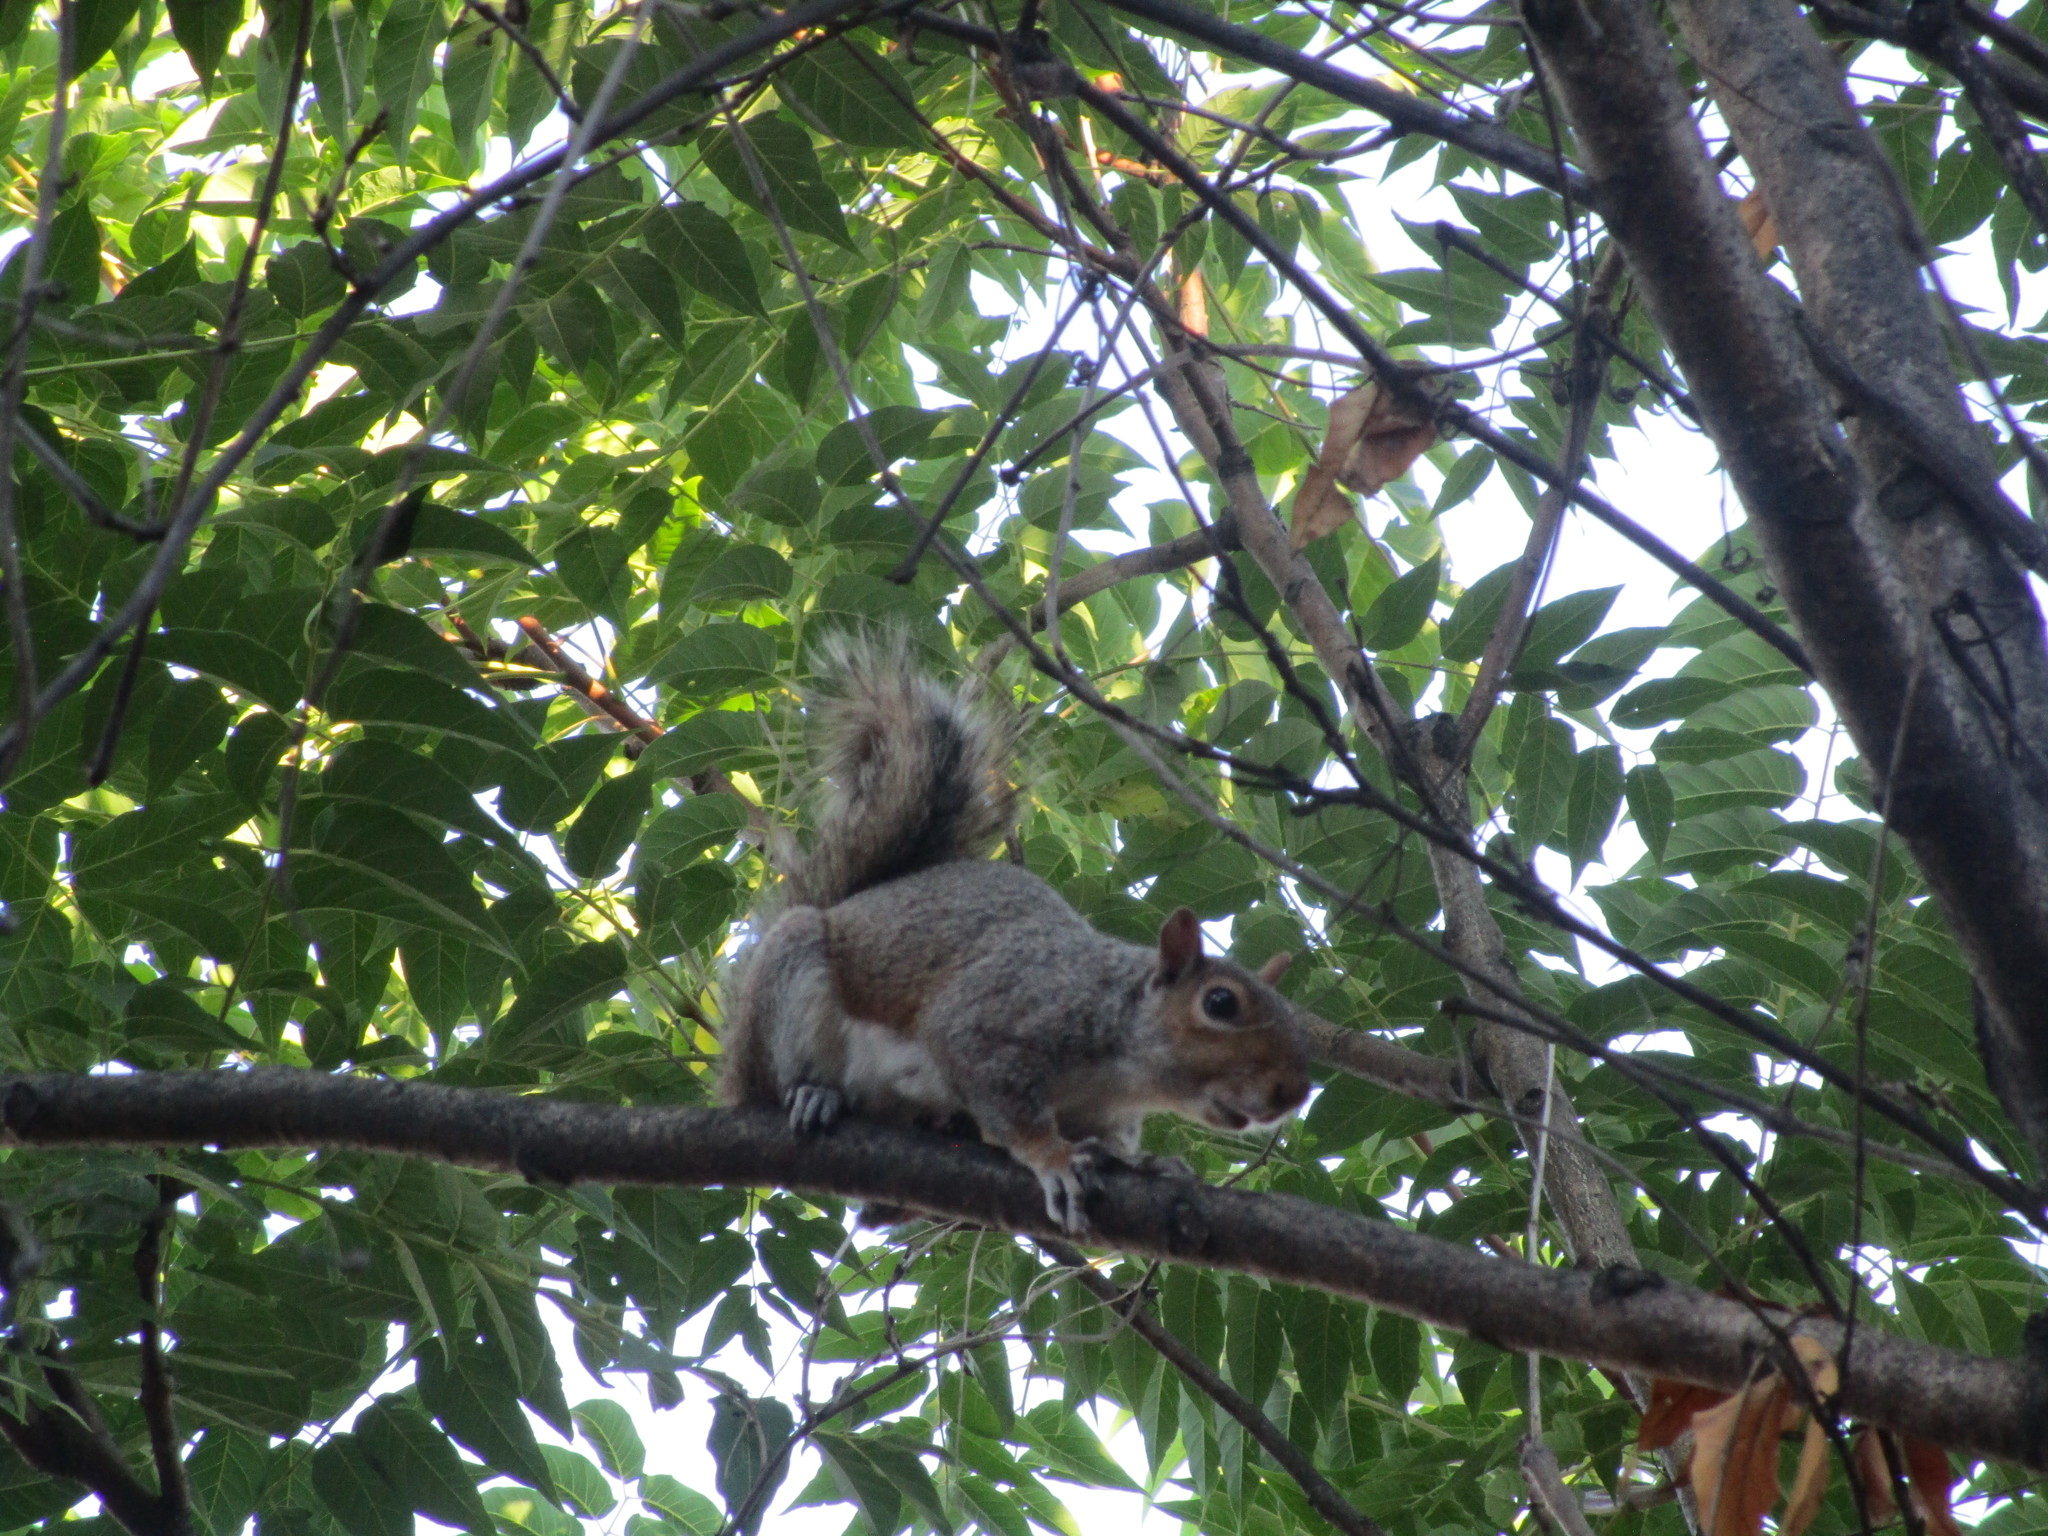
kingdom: Animalia
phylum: Chordata
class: Mammalia
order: Rodentia
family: Sciuridae
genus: Sciurus
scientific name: Sciurus carolinensis
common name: Eastern gray squirrel
